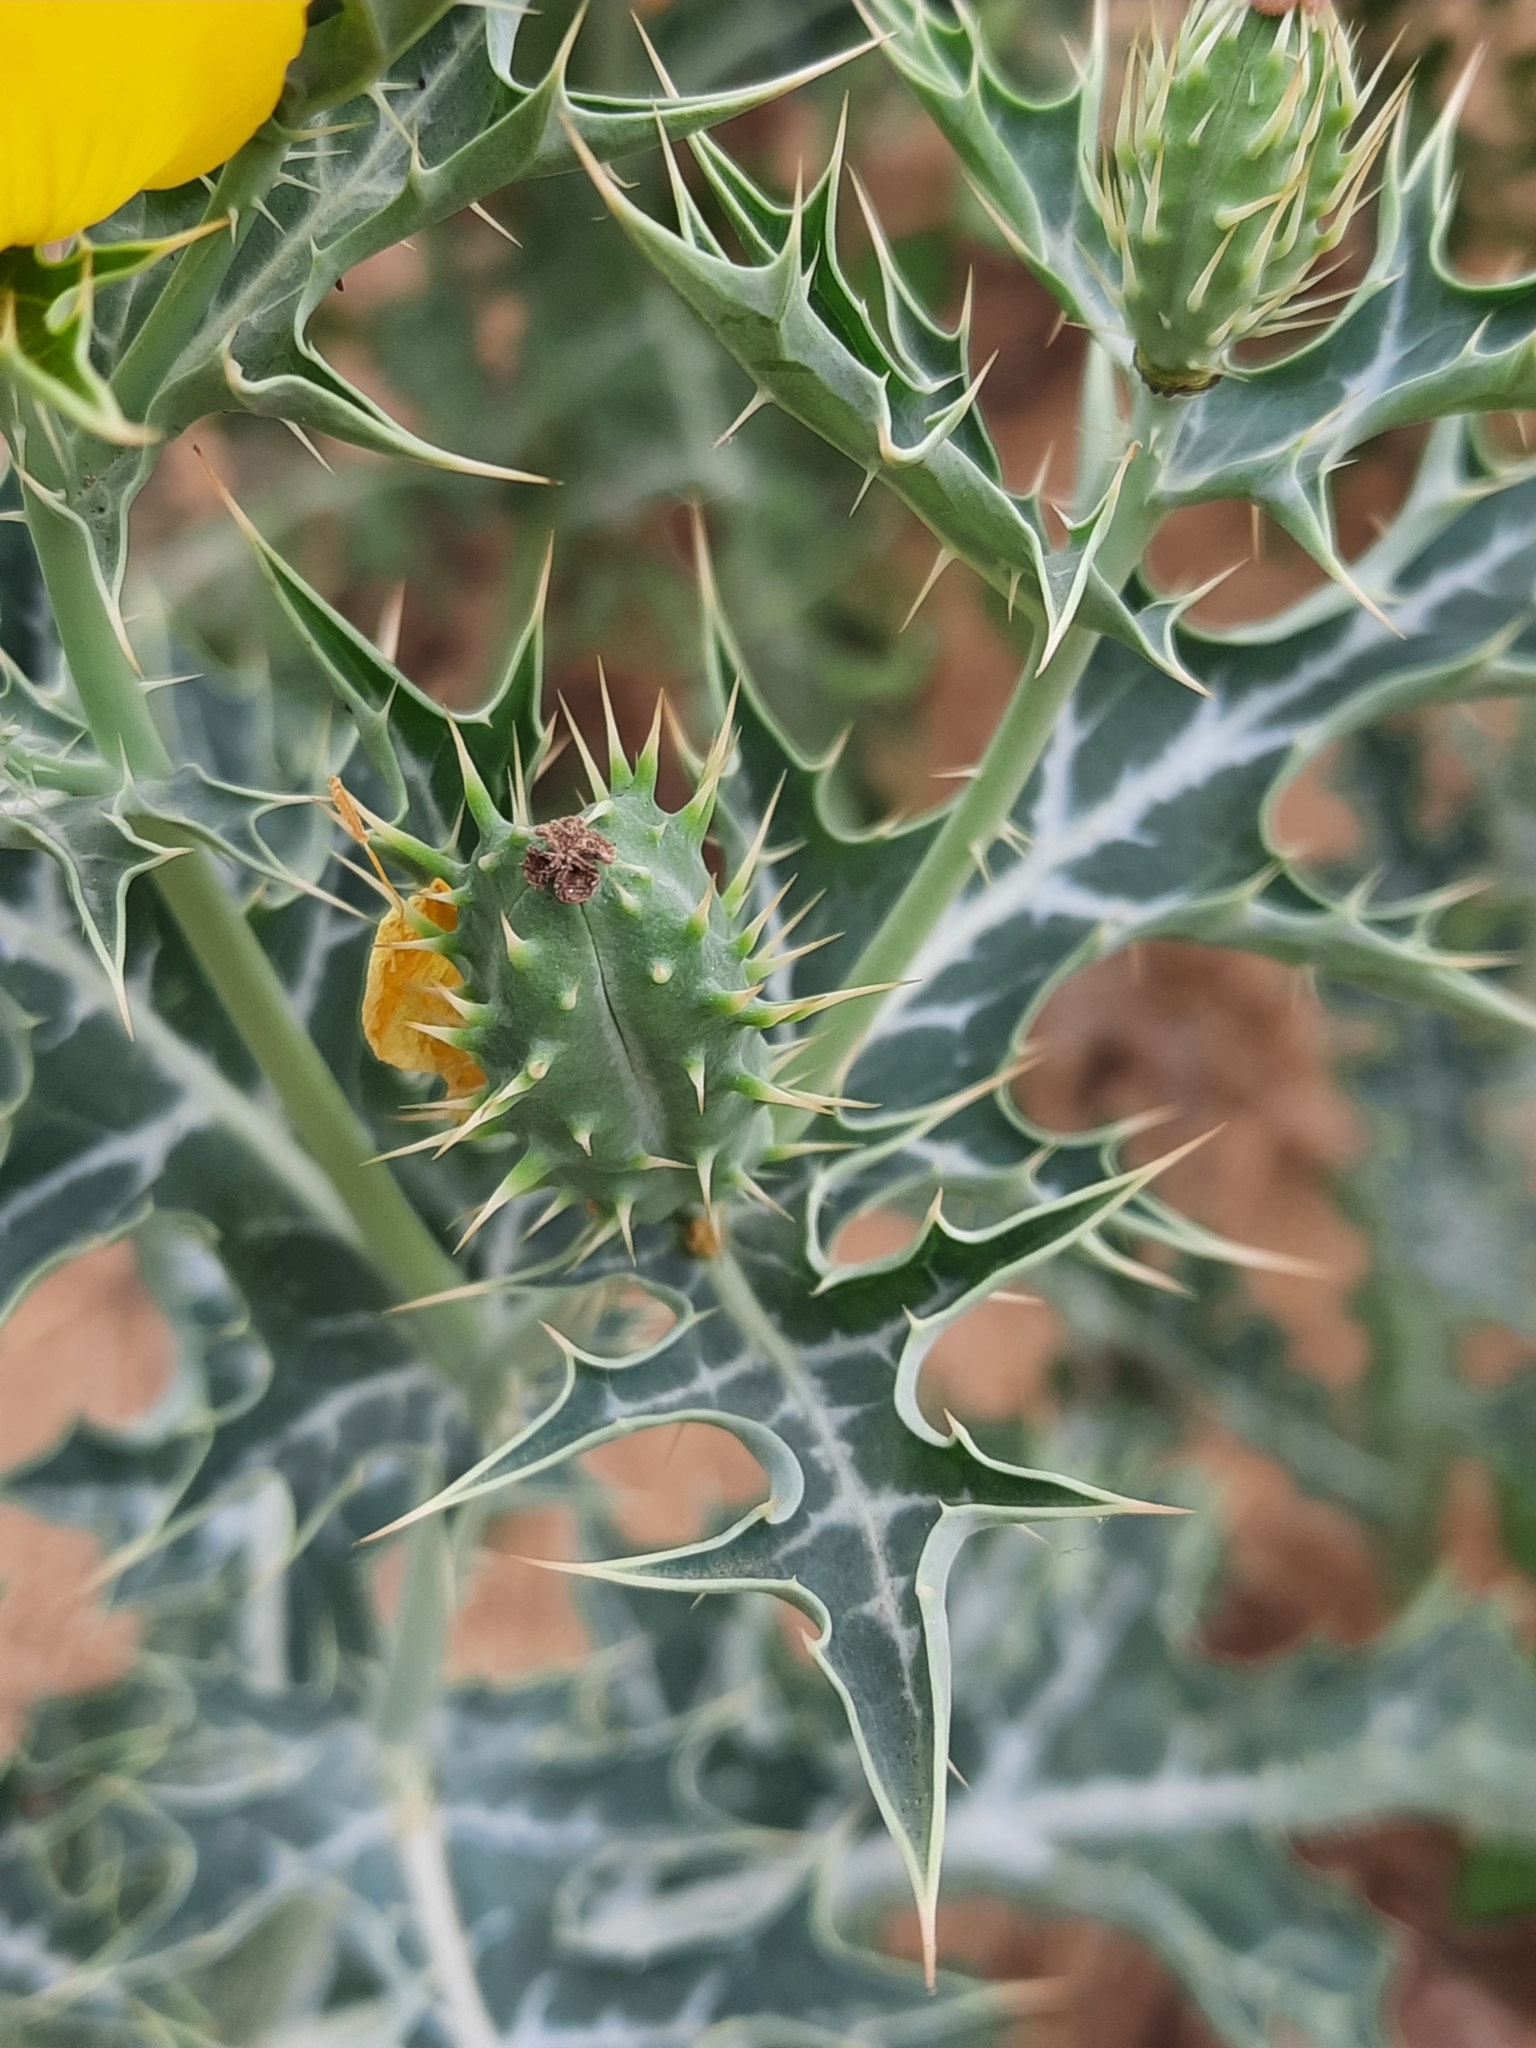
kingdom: Plantae
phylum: Tracheophyta
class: Magnoliopsida
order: Ranunculales
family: Papaveraceae
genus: Argemone
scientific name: Argemone mexicana
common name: Mexican poppy
